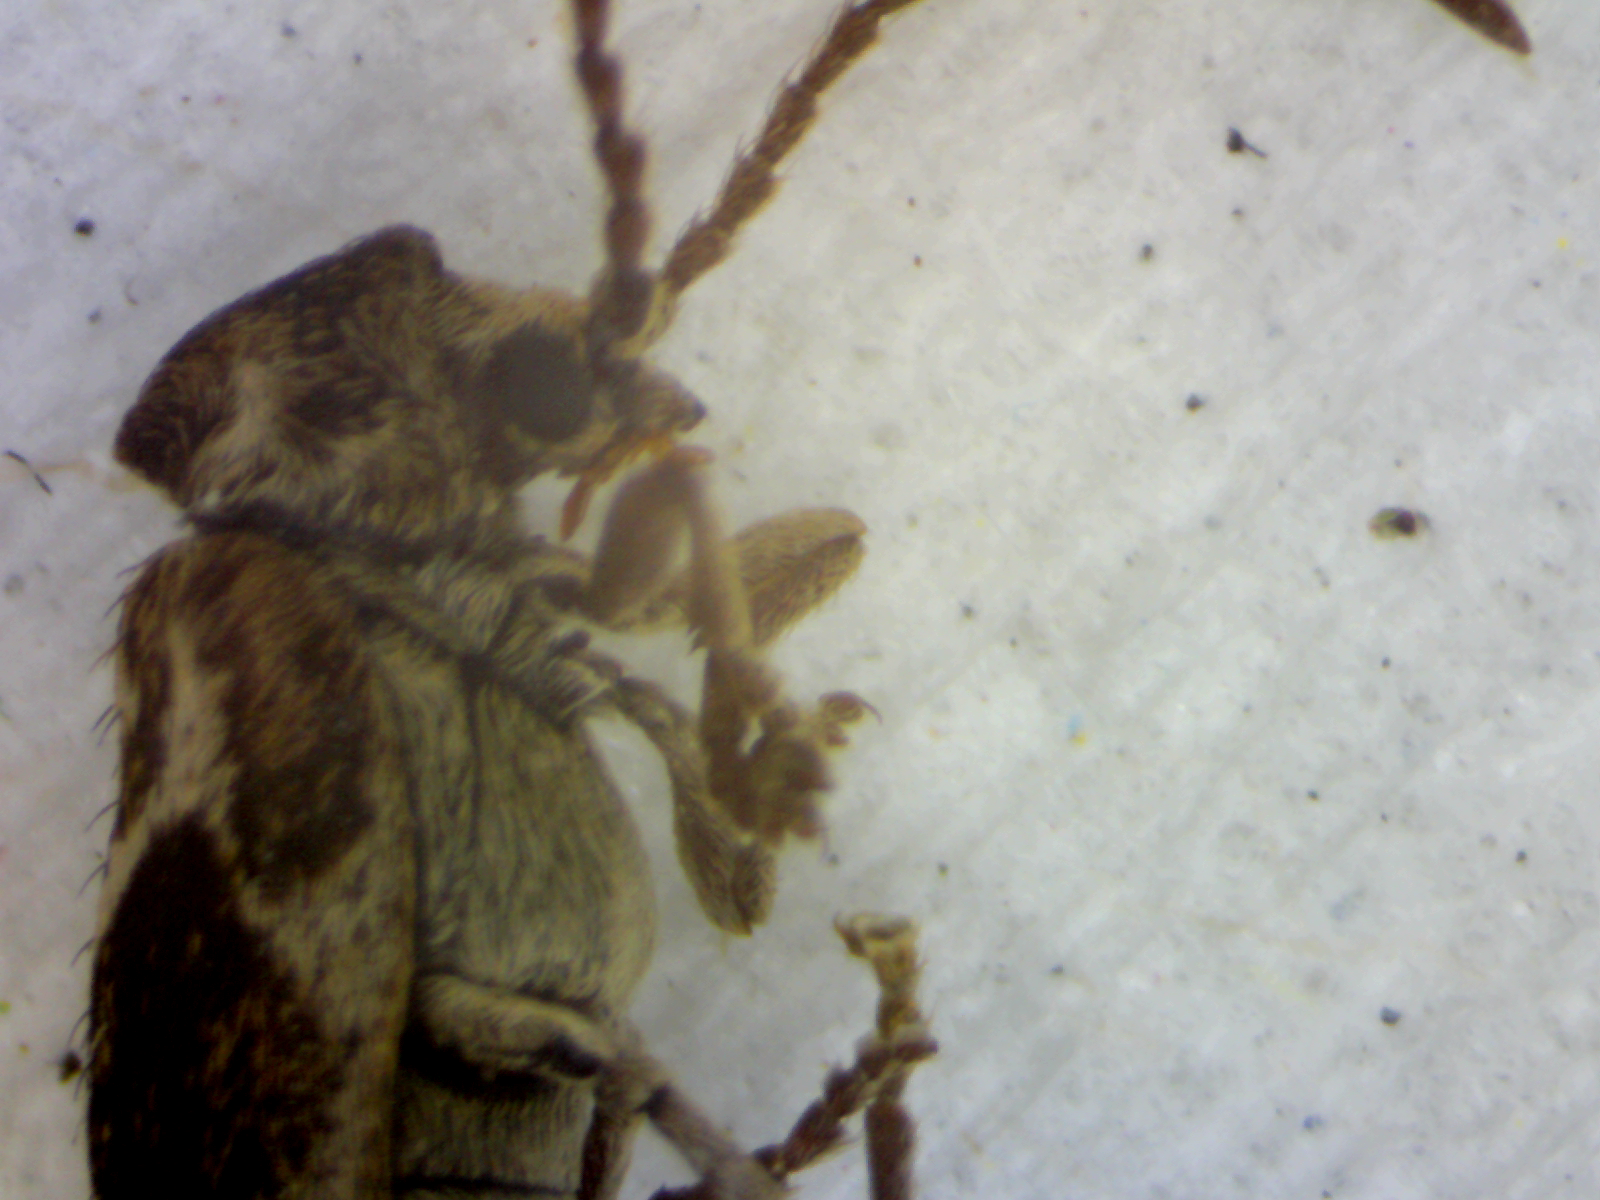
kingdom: Animalia
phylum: Arthropoda
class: Insecta
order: Coleoptera
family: Anobiidae
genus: Ptinomorphus
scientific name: Ptinomorphus imperialis
